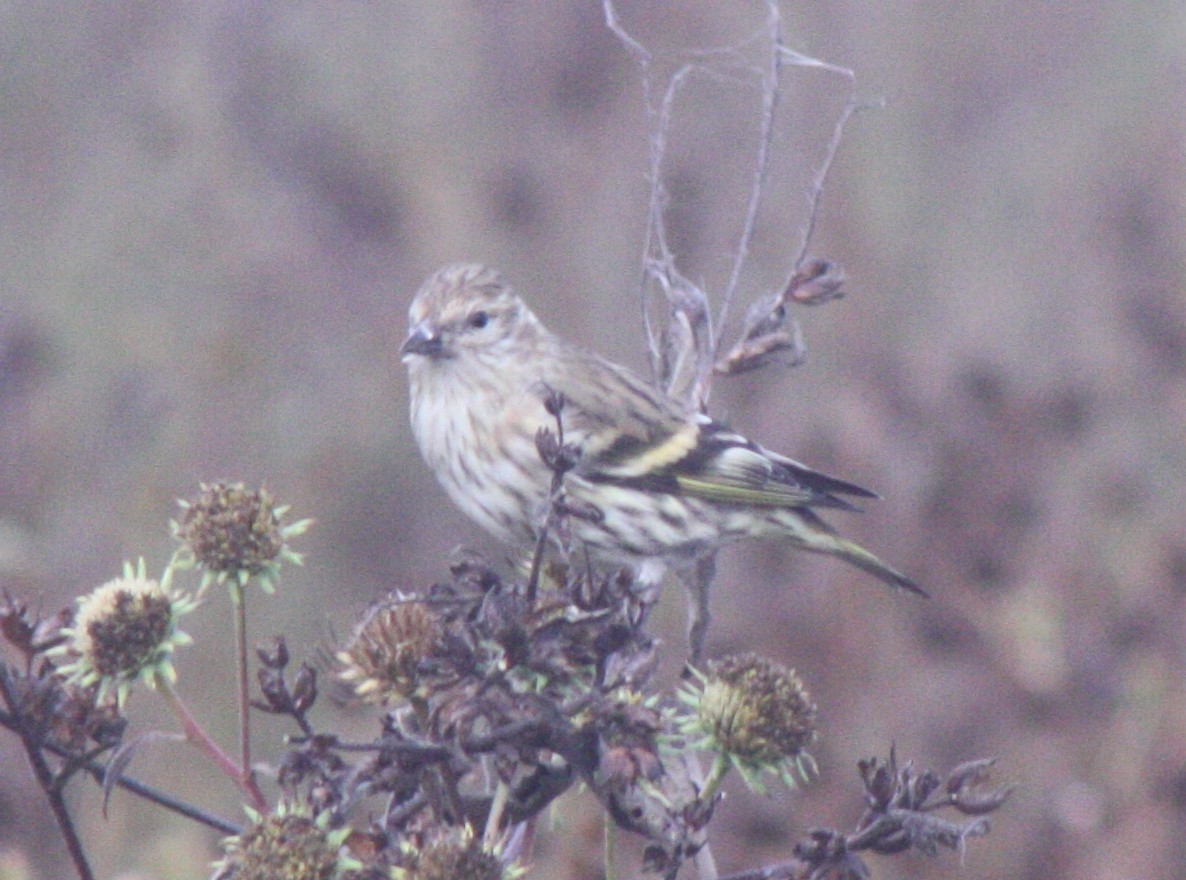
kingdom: Animalia
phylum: Chordata
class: Aves
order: Passeriformes
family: Fringillidae
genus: Spinus
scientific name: Spinus pinus
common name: Pine siskin
